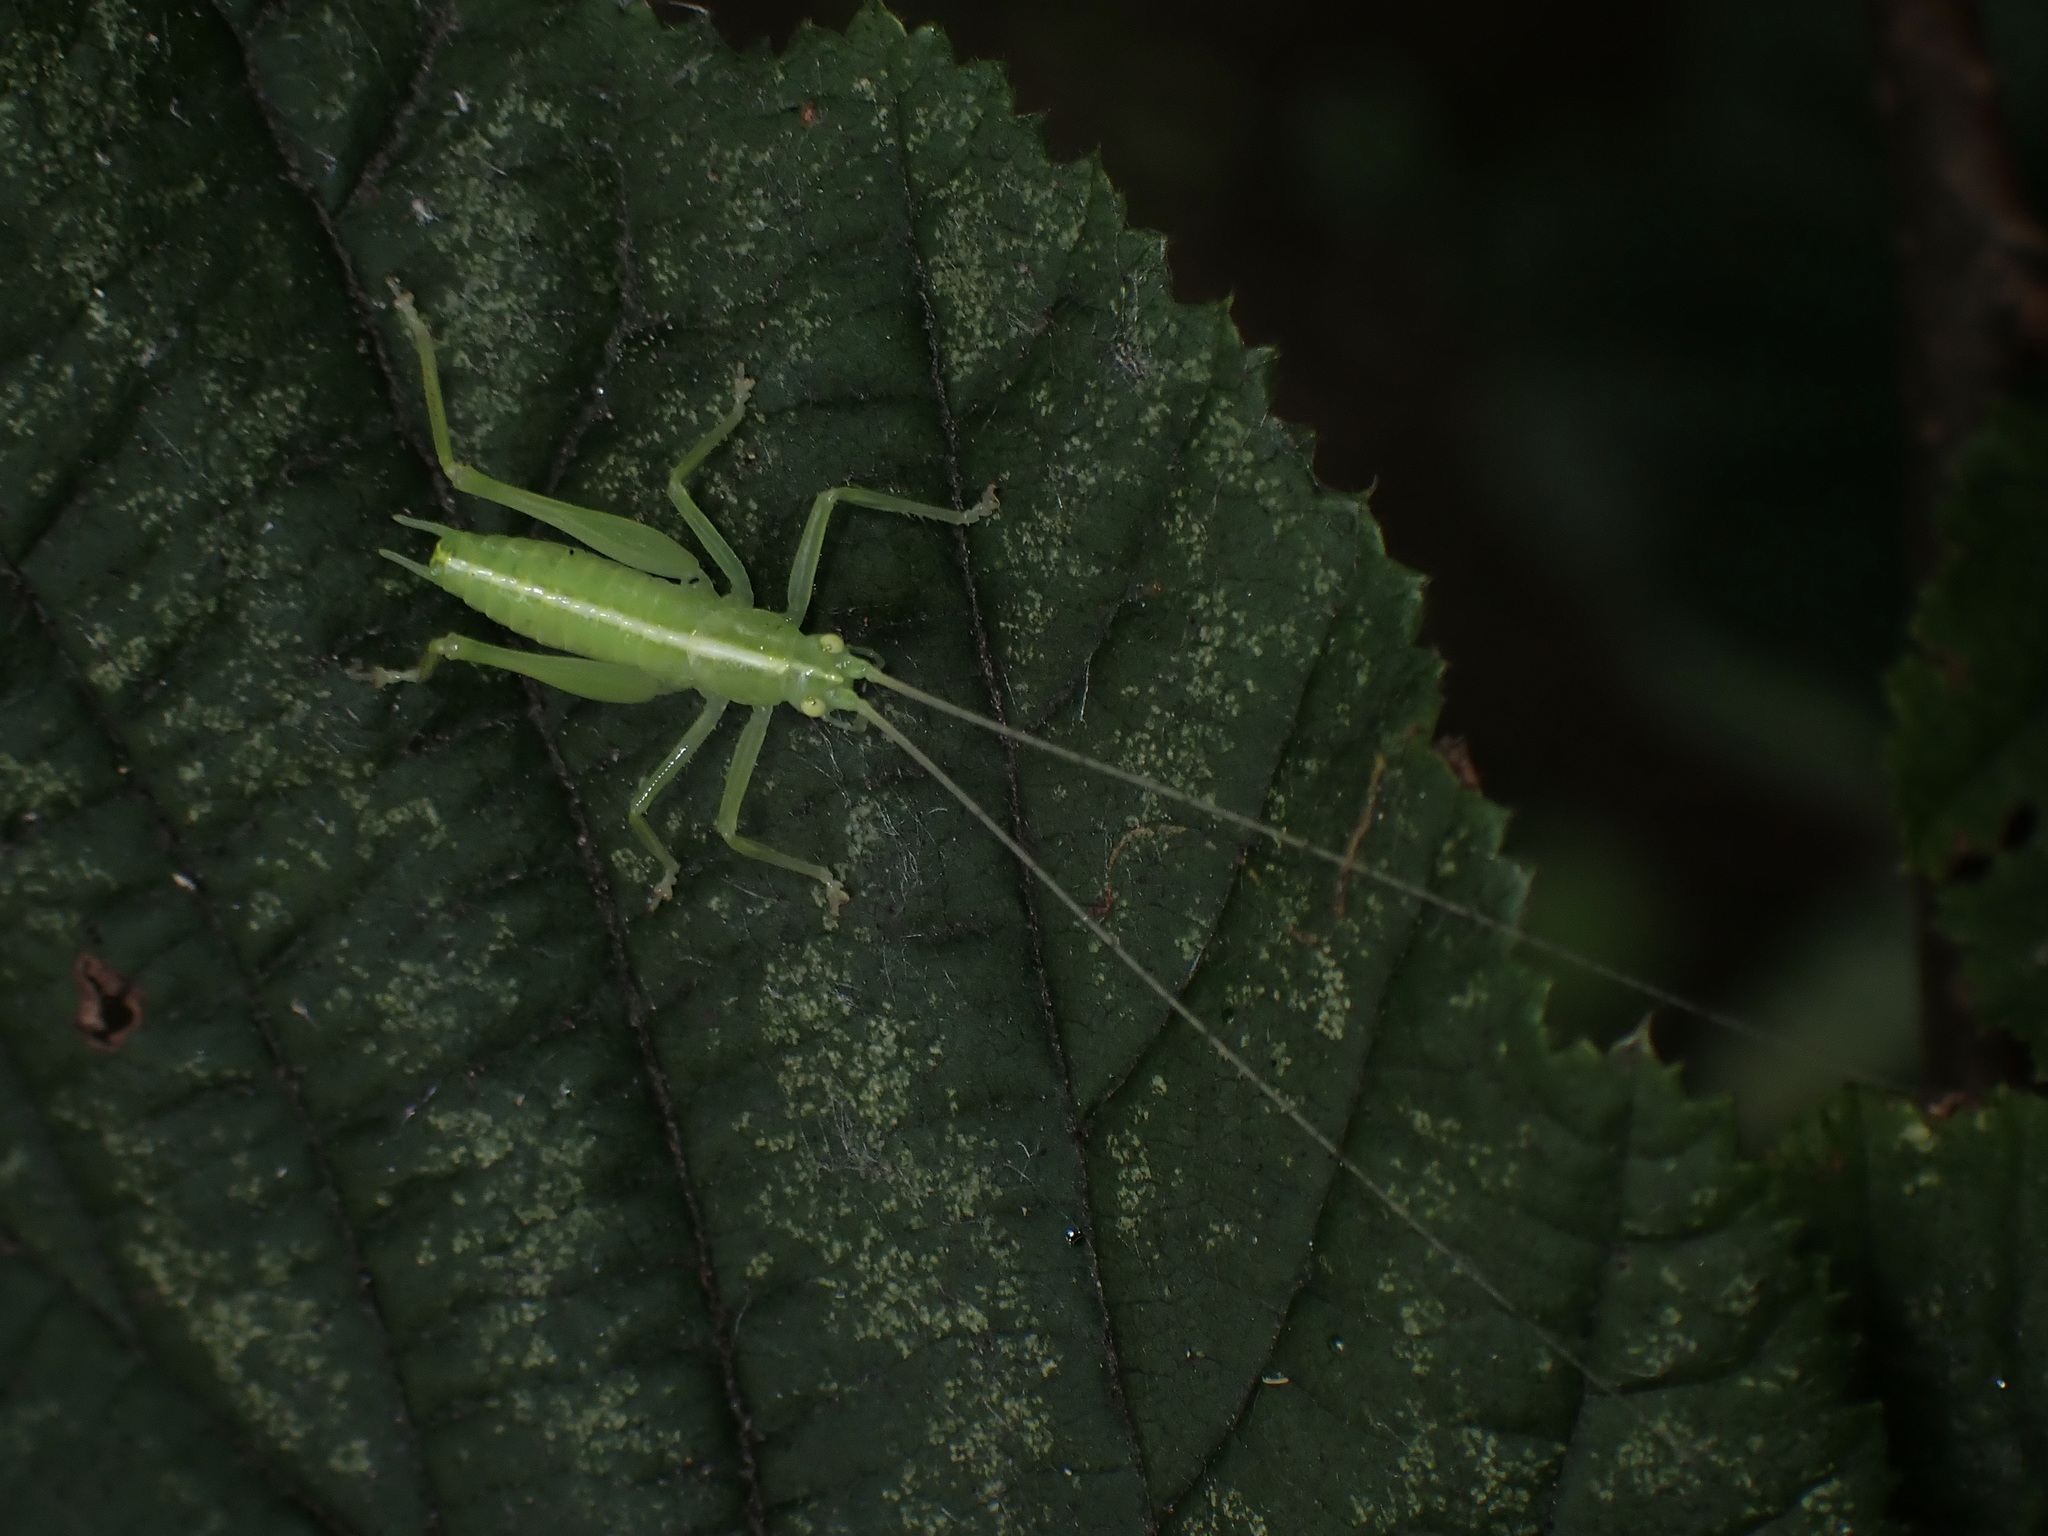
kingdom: Animalia
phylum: Arthropoda
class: Insecta
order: Orthoptera
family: Tettigoniidae
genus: Meconema
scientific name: Meconema meridionale
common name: Southern oak bush-cricket
